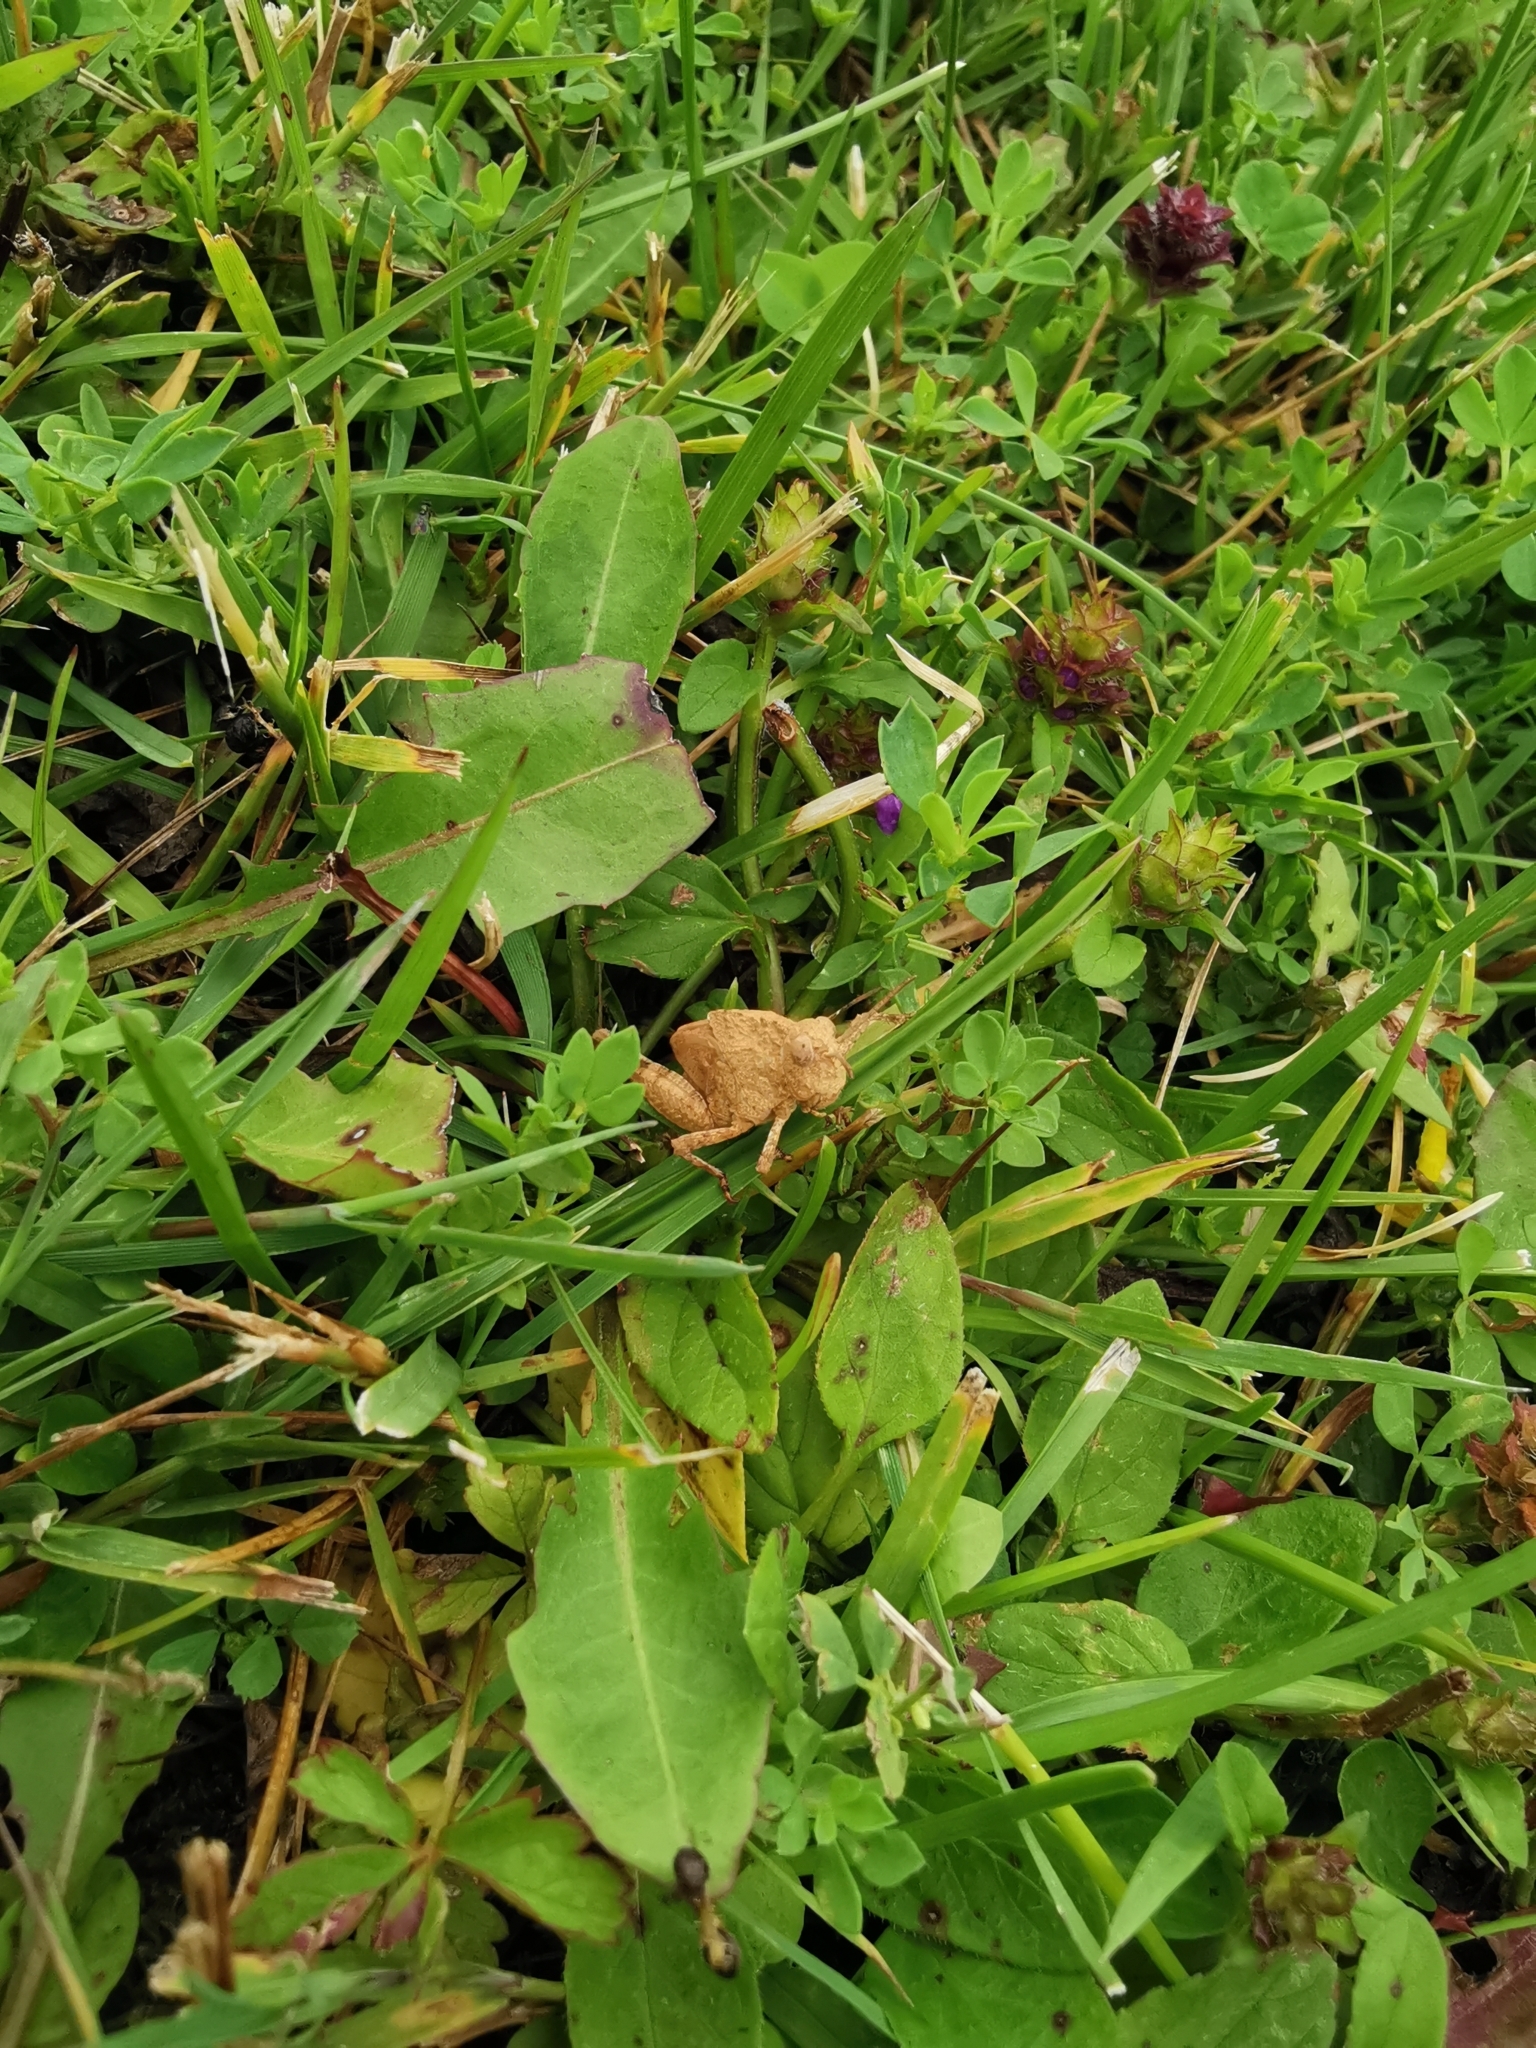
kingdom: Animalia
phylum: Arthropoda
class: Insecta
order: Orthoptera
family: Acrididae
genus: Oedipoda
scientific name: Oedipoda caerulescens
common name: Blue-winged grasshopper
